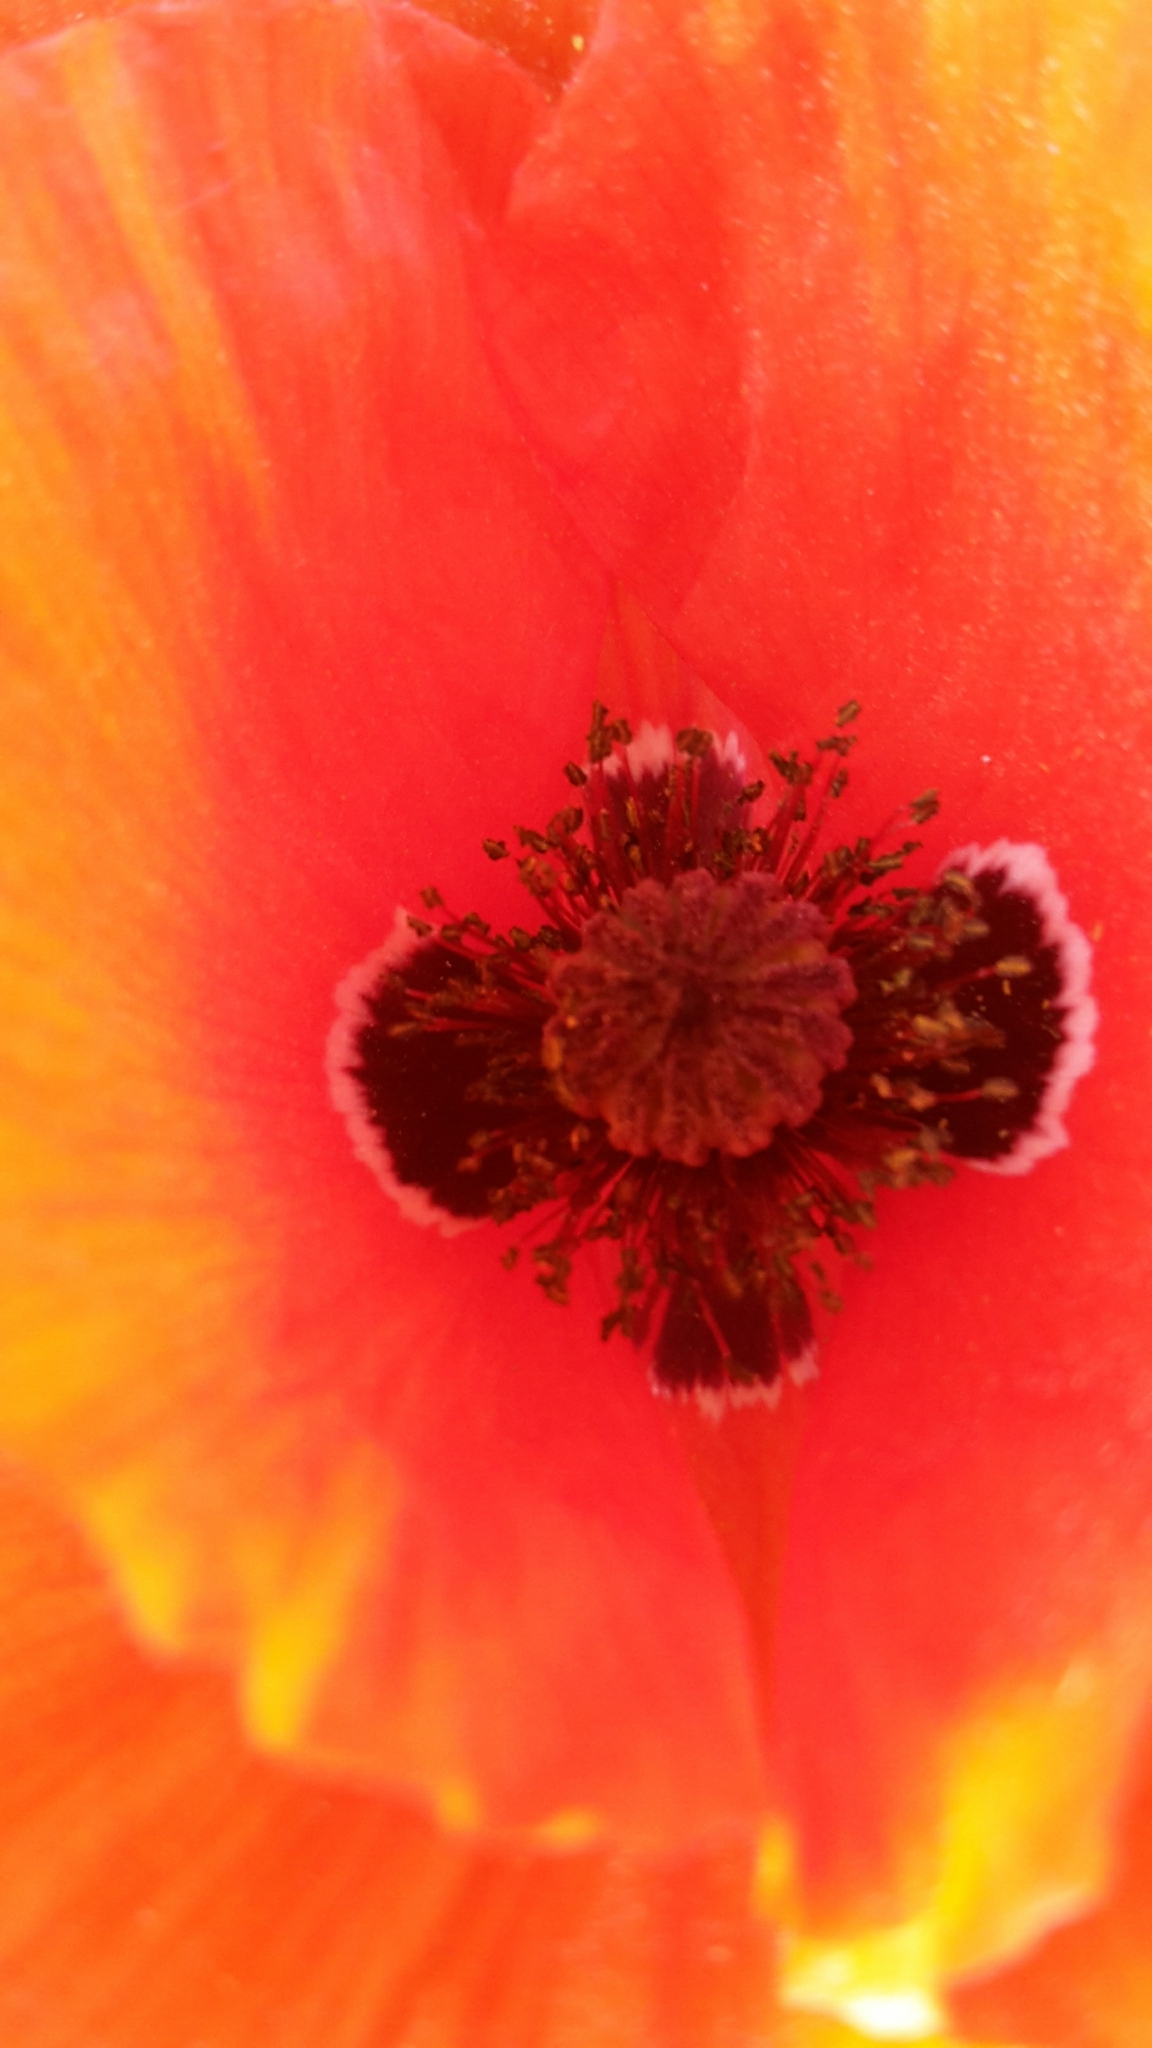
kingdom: Plantae
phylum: Tracheophyta
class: Magnoliopsida
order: Ranunculales
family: Papaveraceae
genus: Papaver
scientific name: Papaver rhoeas
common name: Corn poppy
